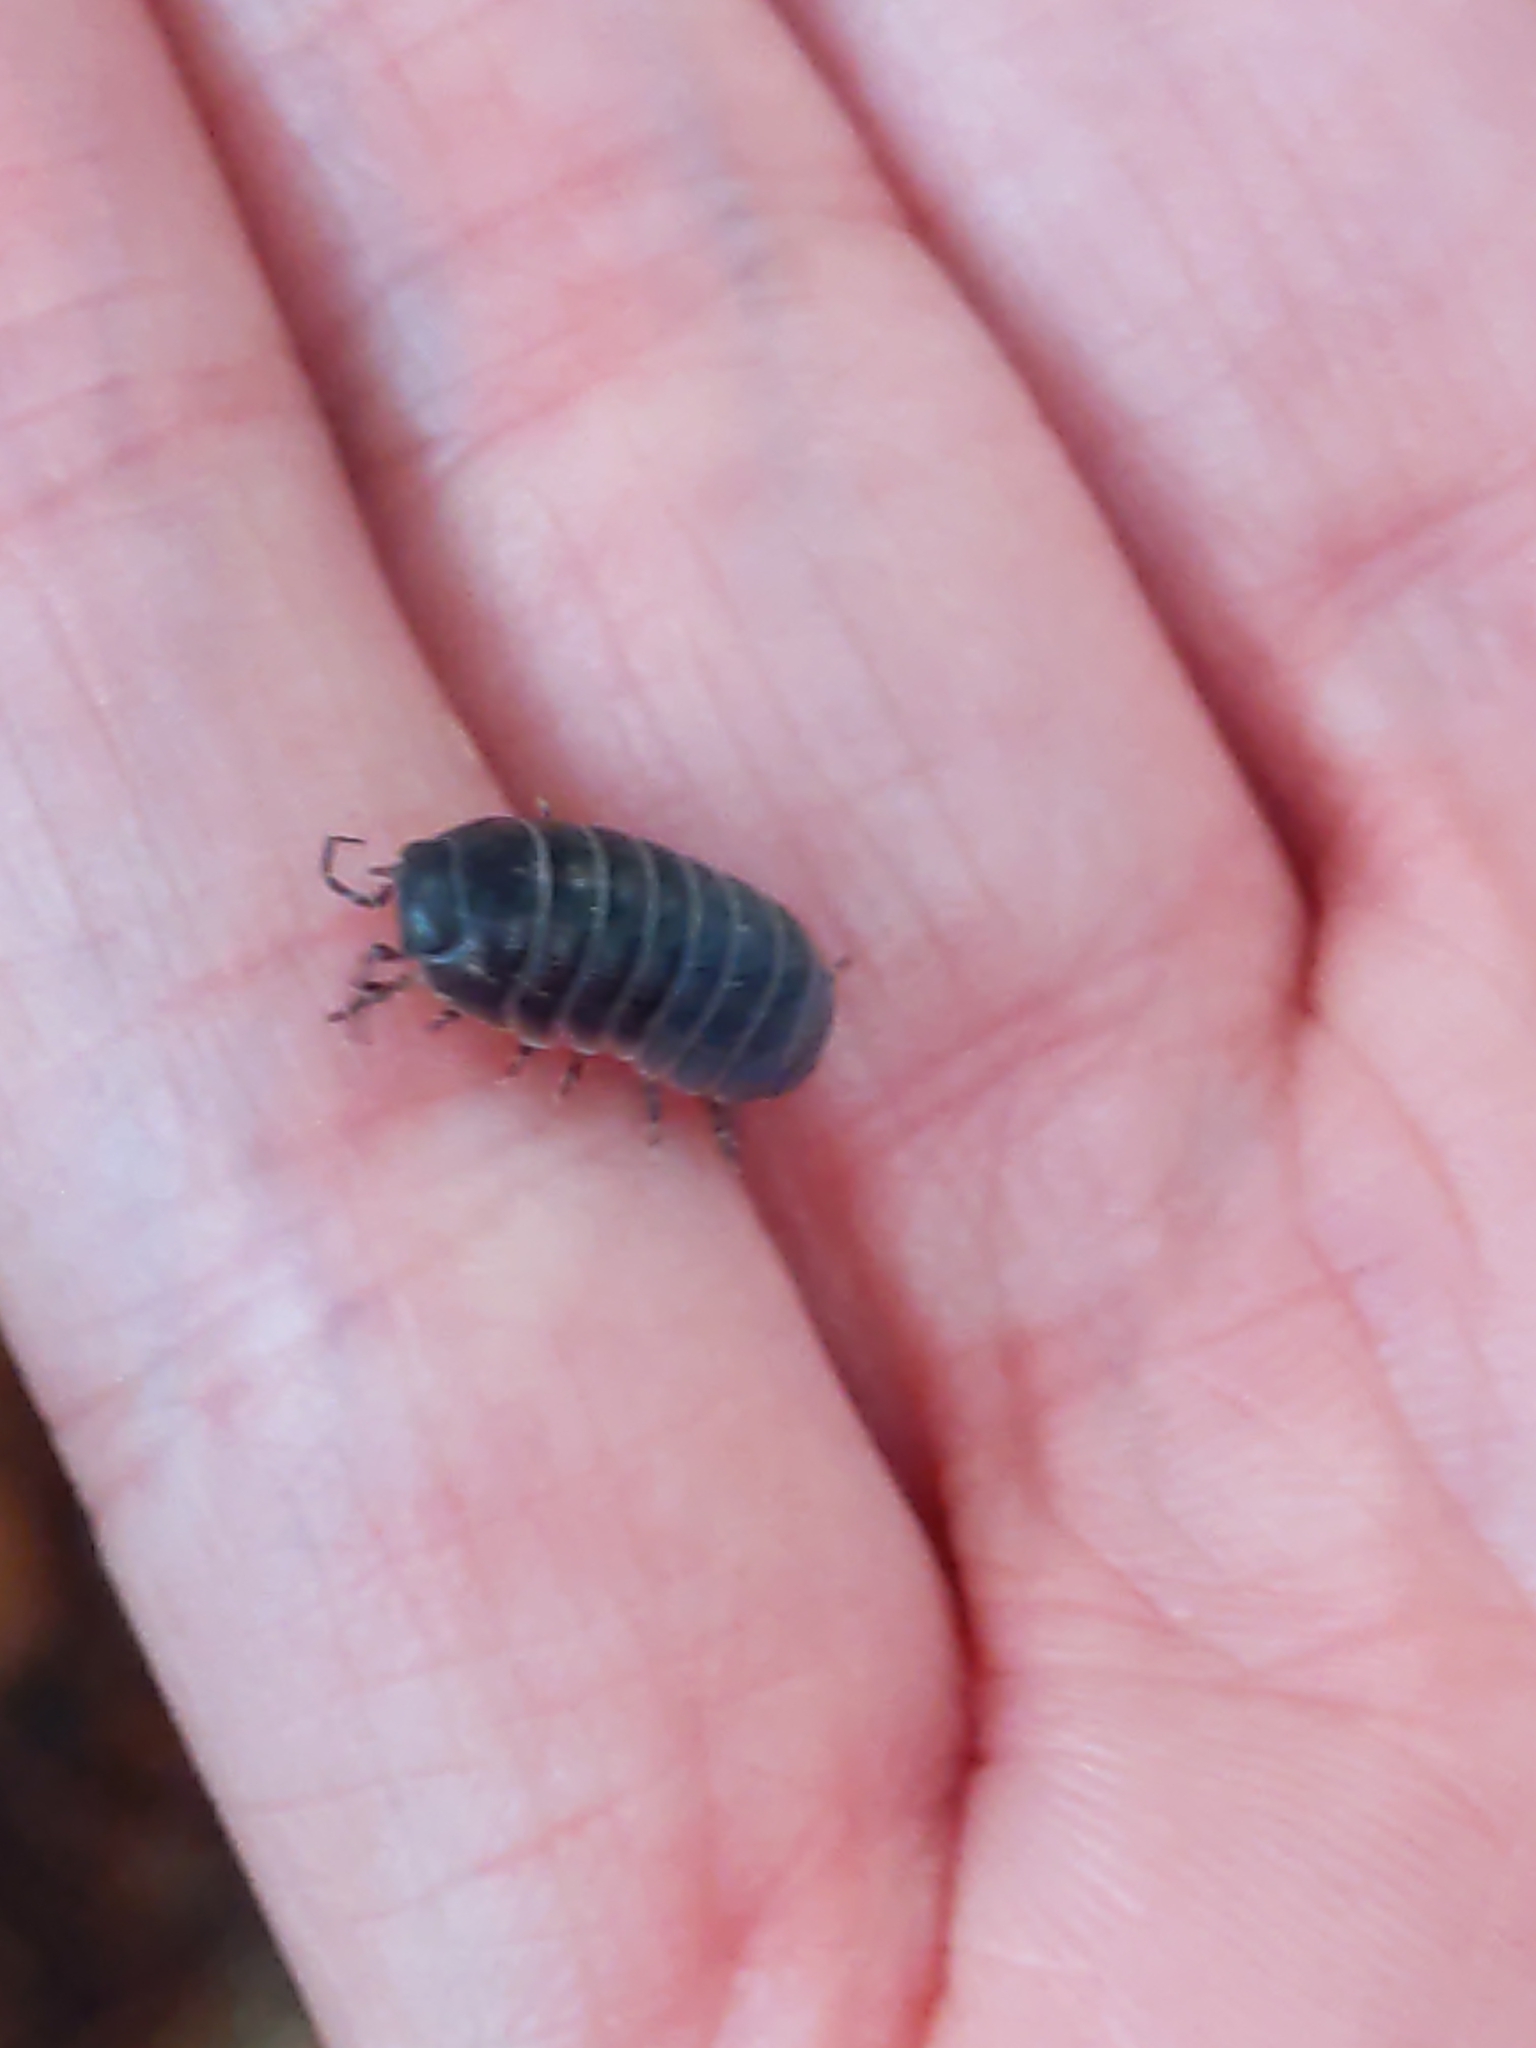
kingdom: Animalia
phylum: Arthropoda
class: Malacostraca
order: Isopoda
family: Armadillidiidae
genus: Armadillidium
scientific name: Armadillidium vulgare
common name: Common pill woodlouse
